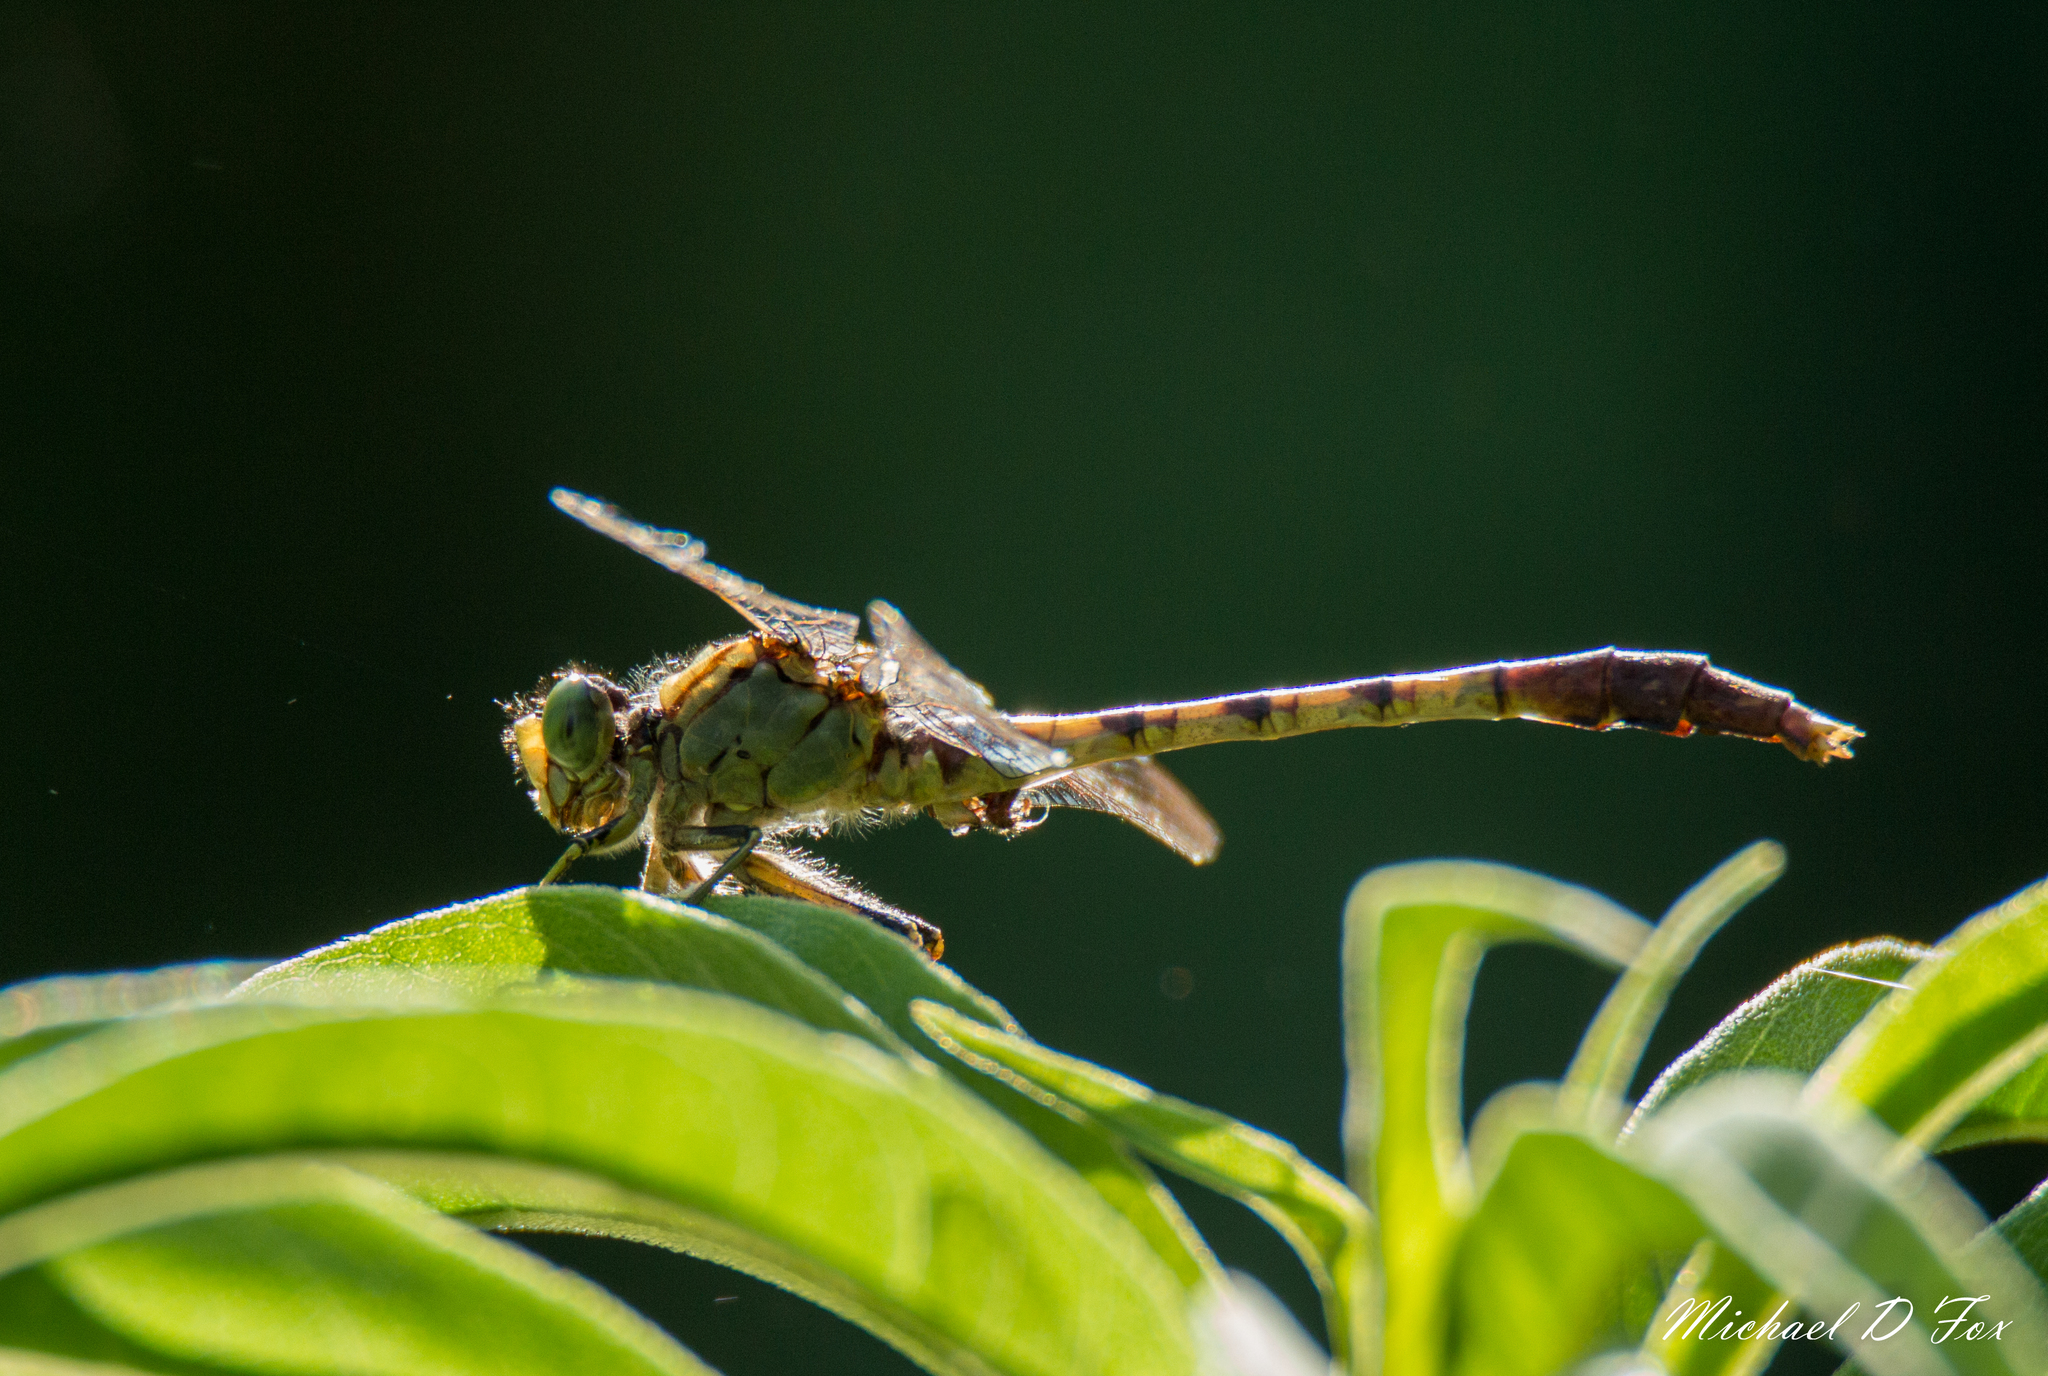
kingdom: Animalia
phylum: Arthropoda
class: Insecta
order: Odonata
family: Gomphidae
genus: Arigomphus
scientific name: Arigomphus submedianus
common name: Jade clubtail
